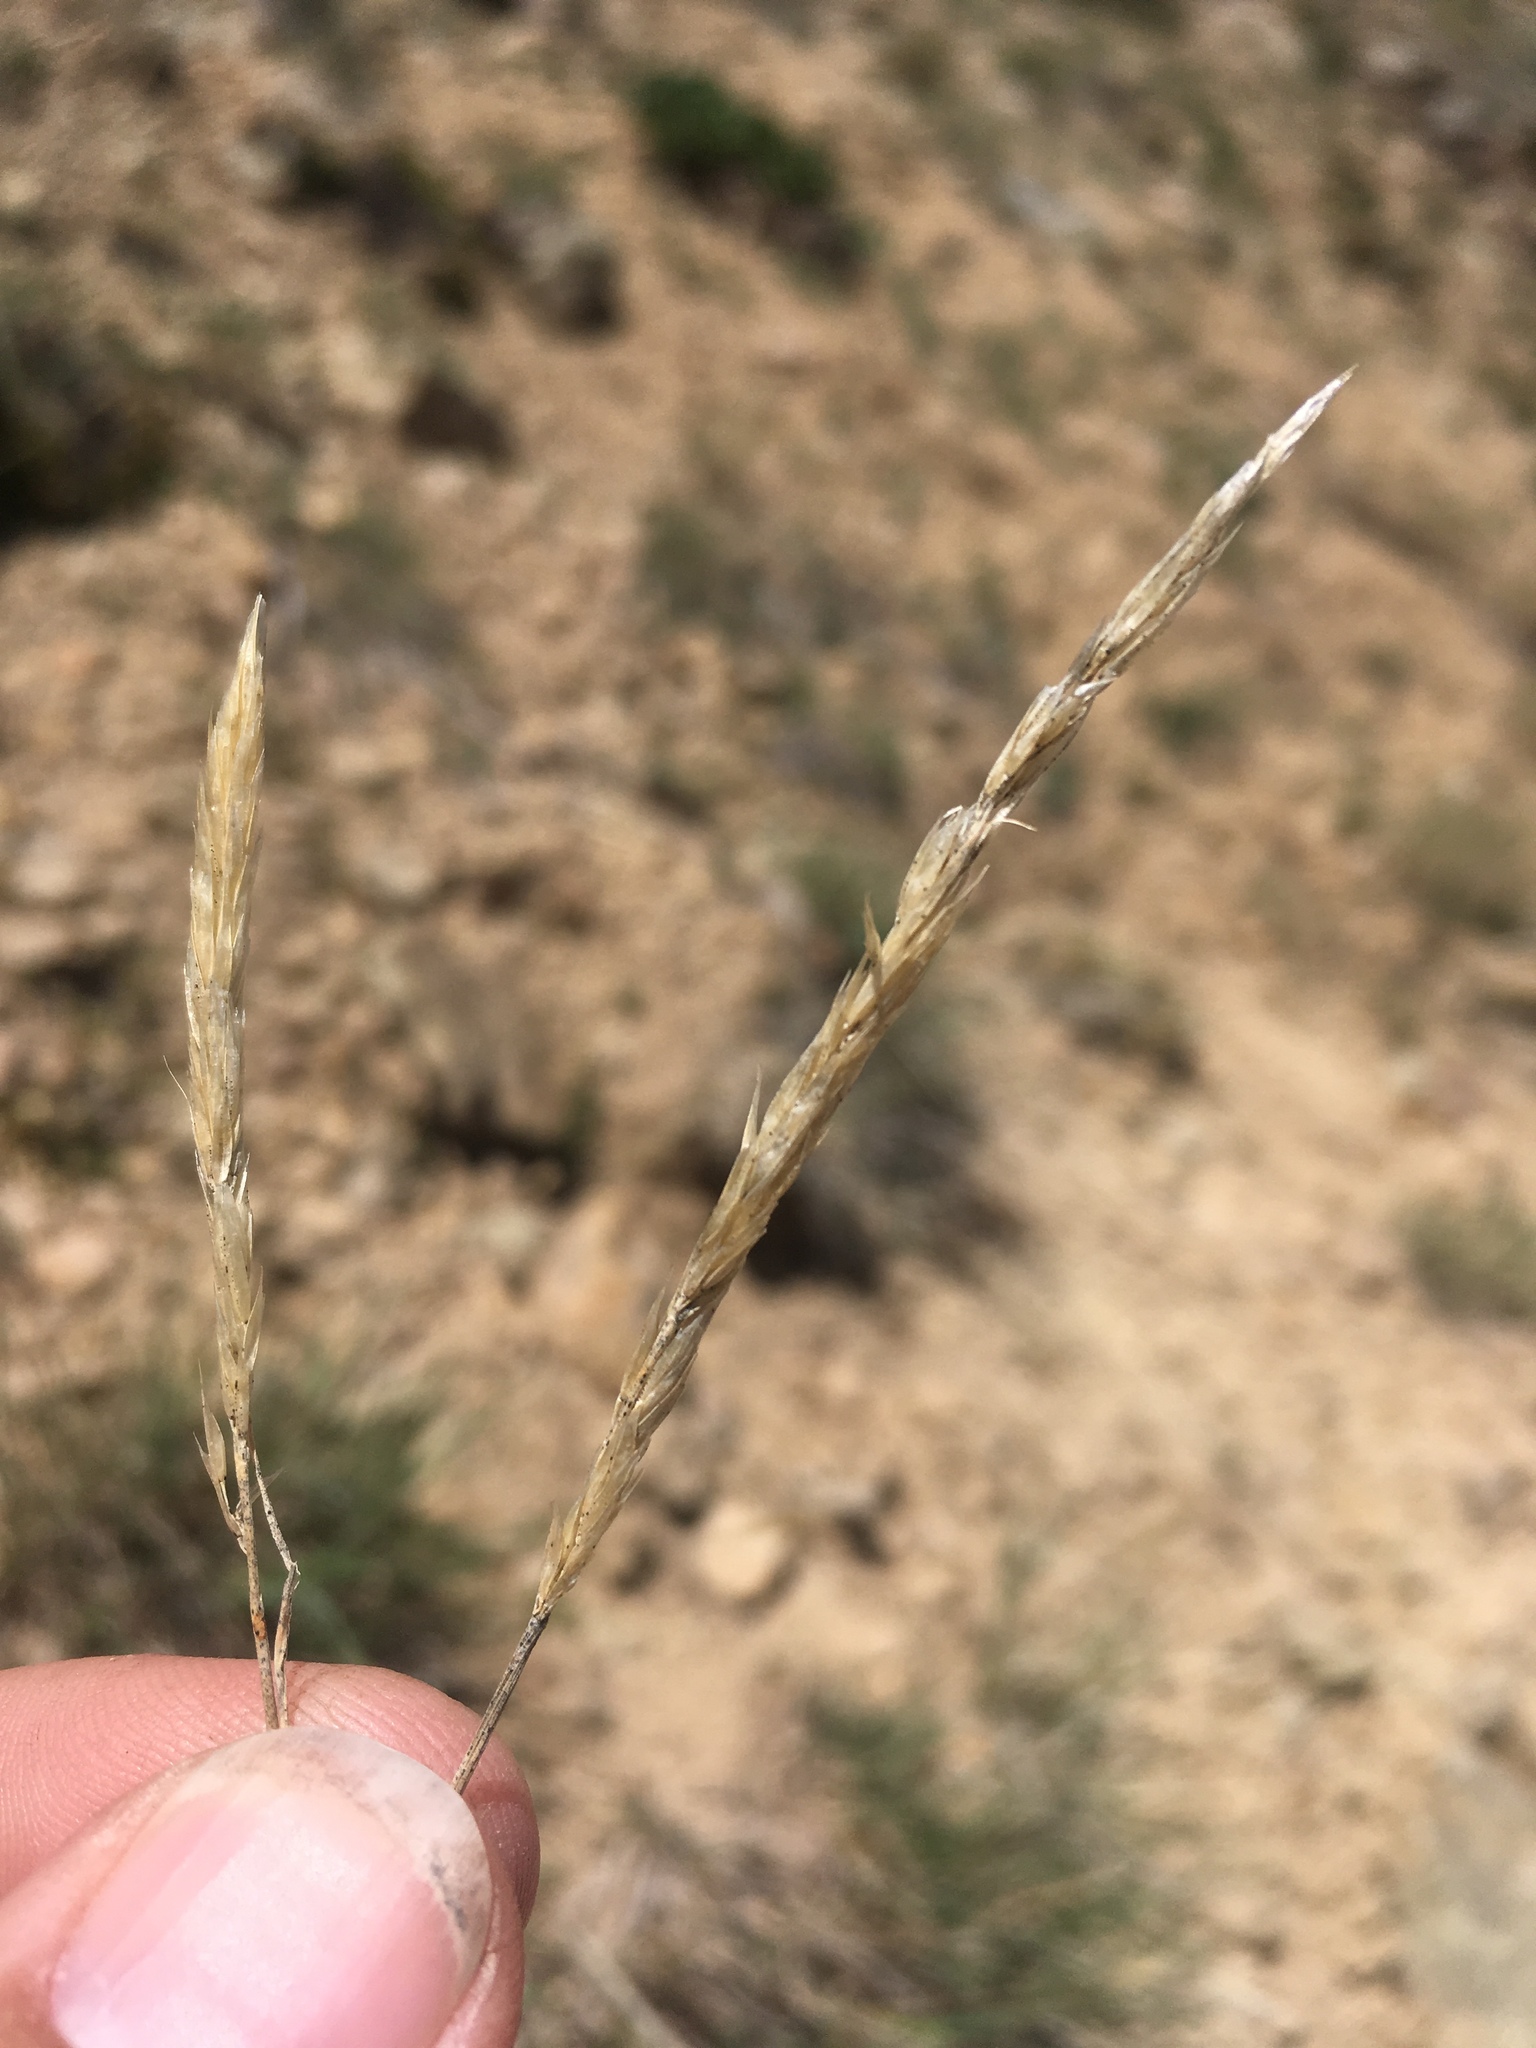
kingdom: Plantae
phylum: Tracheophyta
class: Liliopsida
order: Poales
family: Poaceae
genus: Calamagrostis
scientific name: Calamagrostis purpurascens
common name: Purple reedgrass
